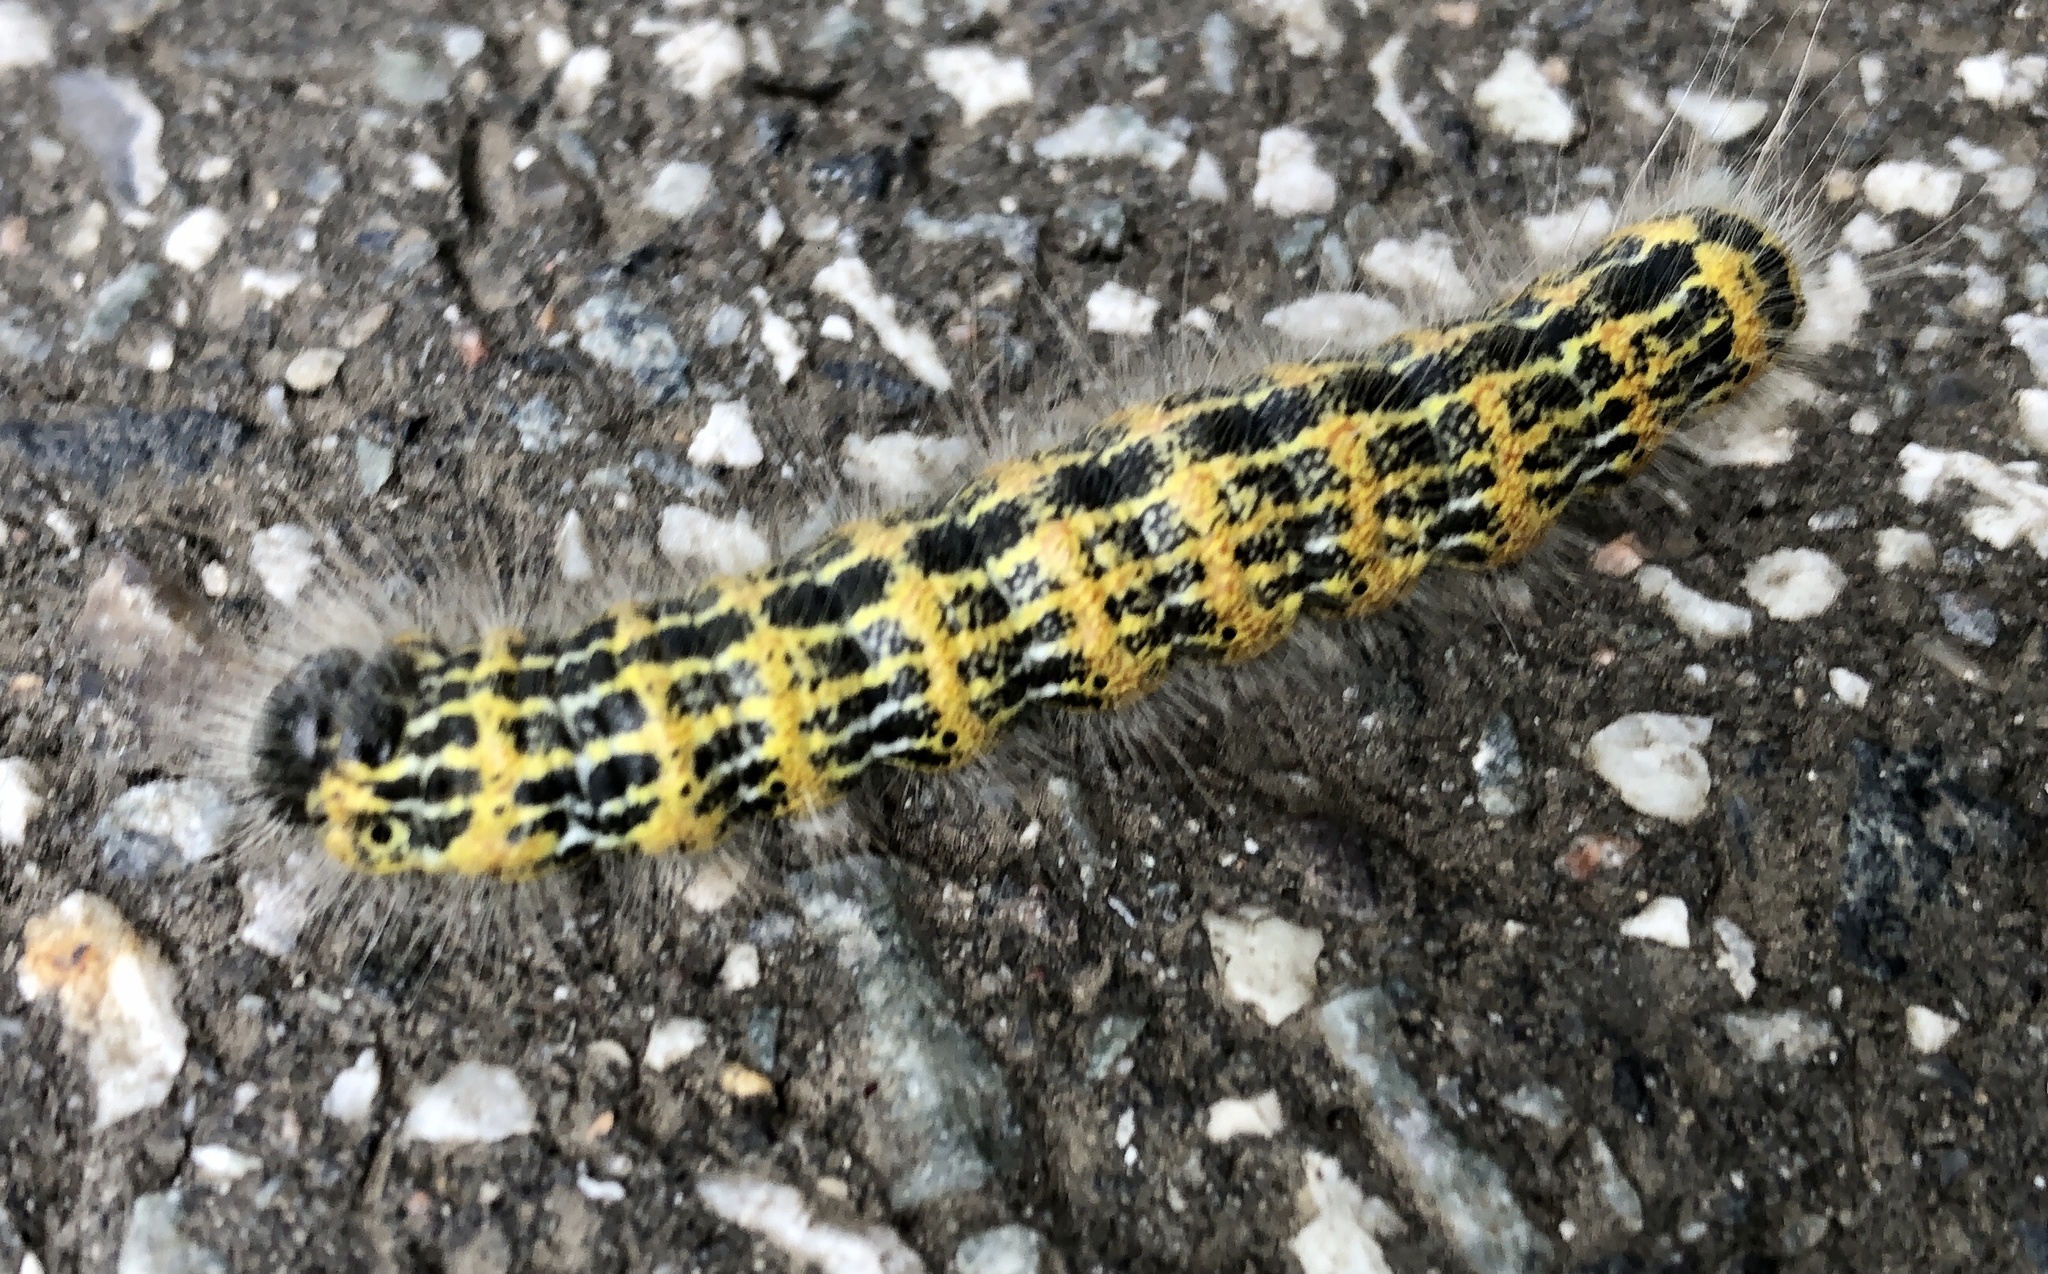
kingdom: Animalia
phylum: Arthropoda
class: Insecta
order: Lepidoptera
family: Notodontidae
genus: Phalera
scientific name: Phalera bucephala
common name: Buff-tip
